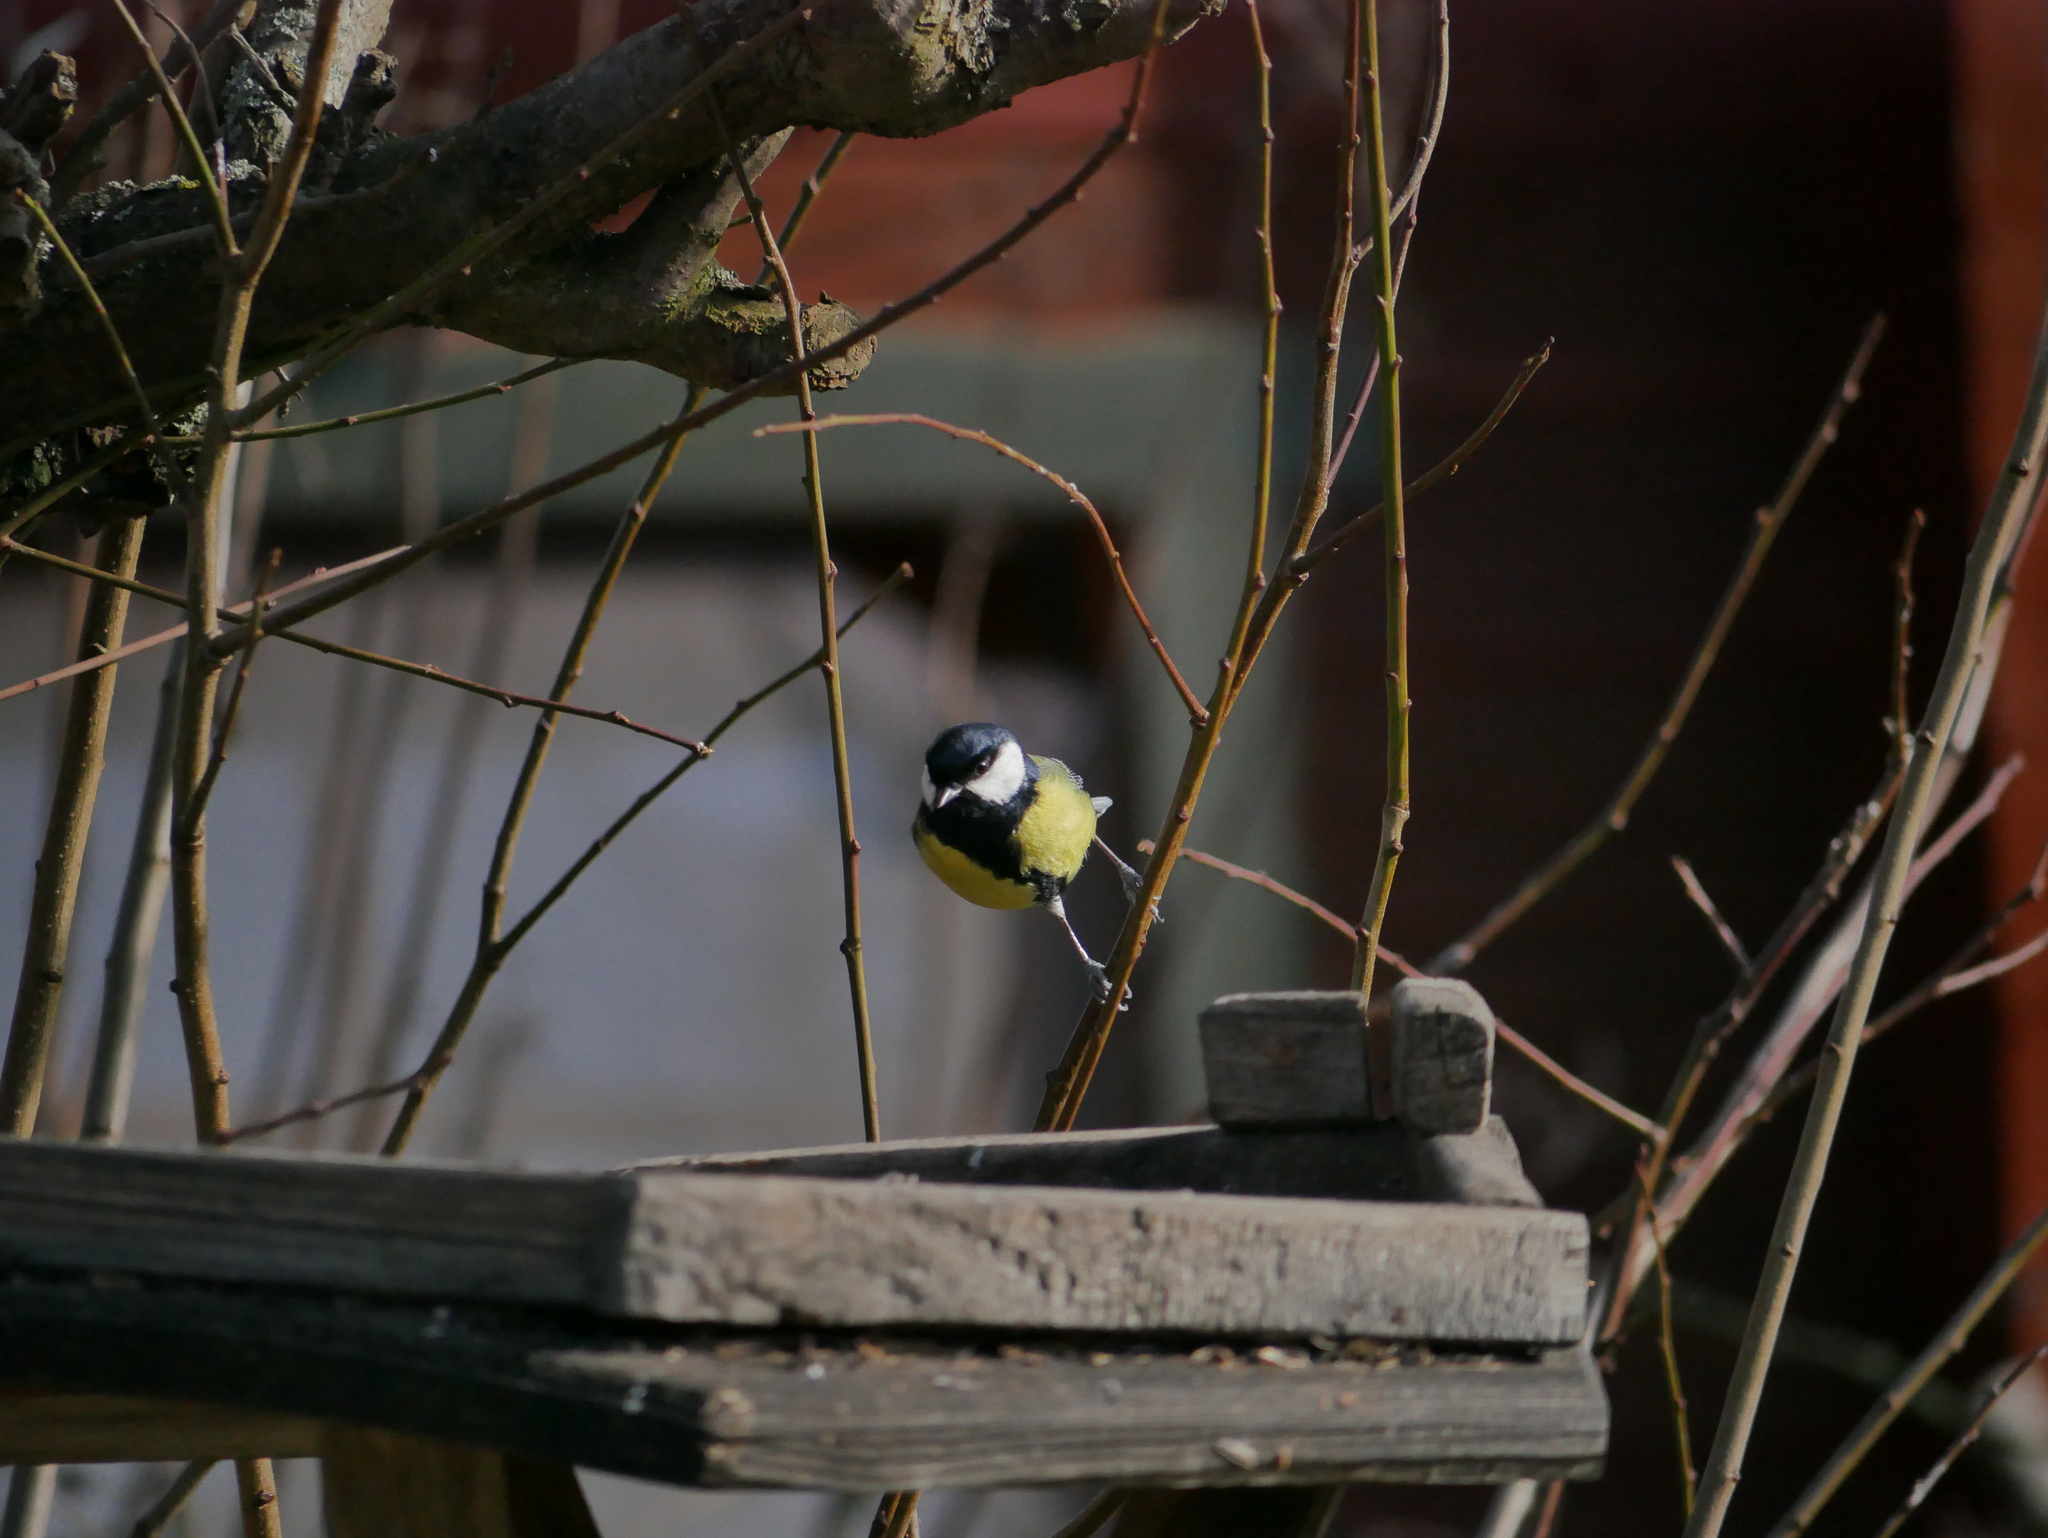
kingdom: Animalia
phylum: Chordata
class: Aves
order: Passeriformes
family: Paridae
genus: Parus
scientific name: Parus major
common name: Great tit
